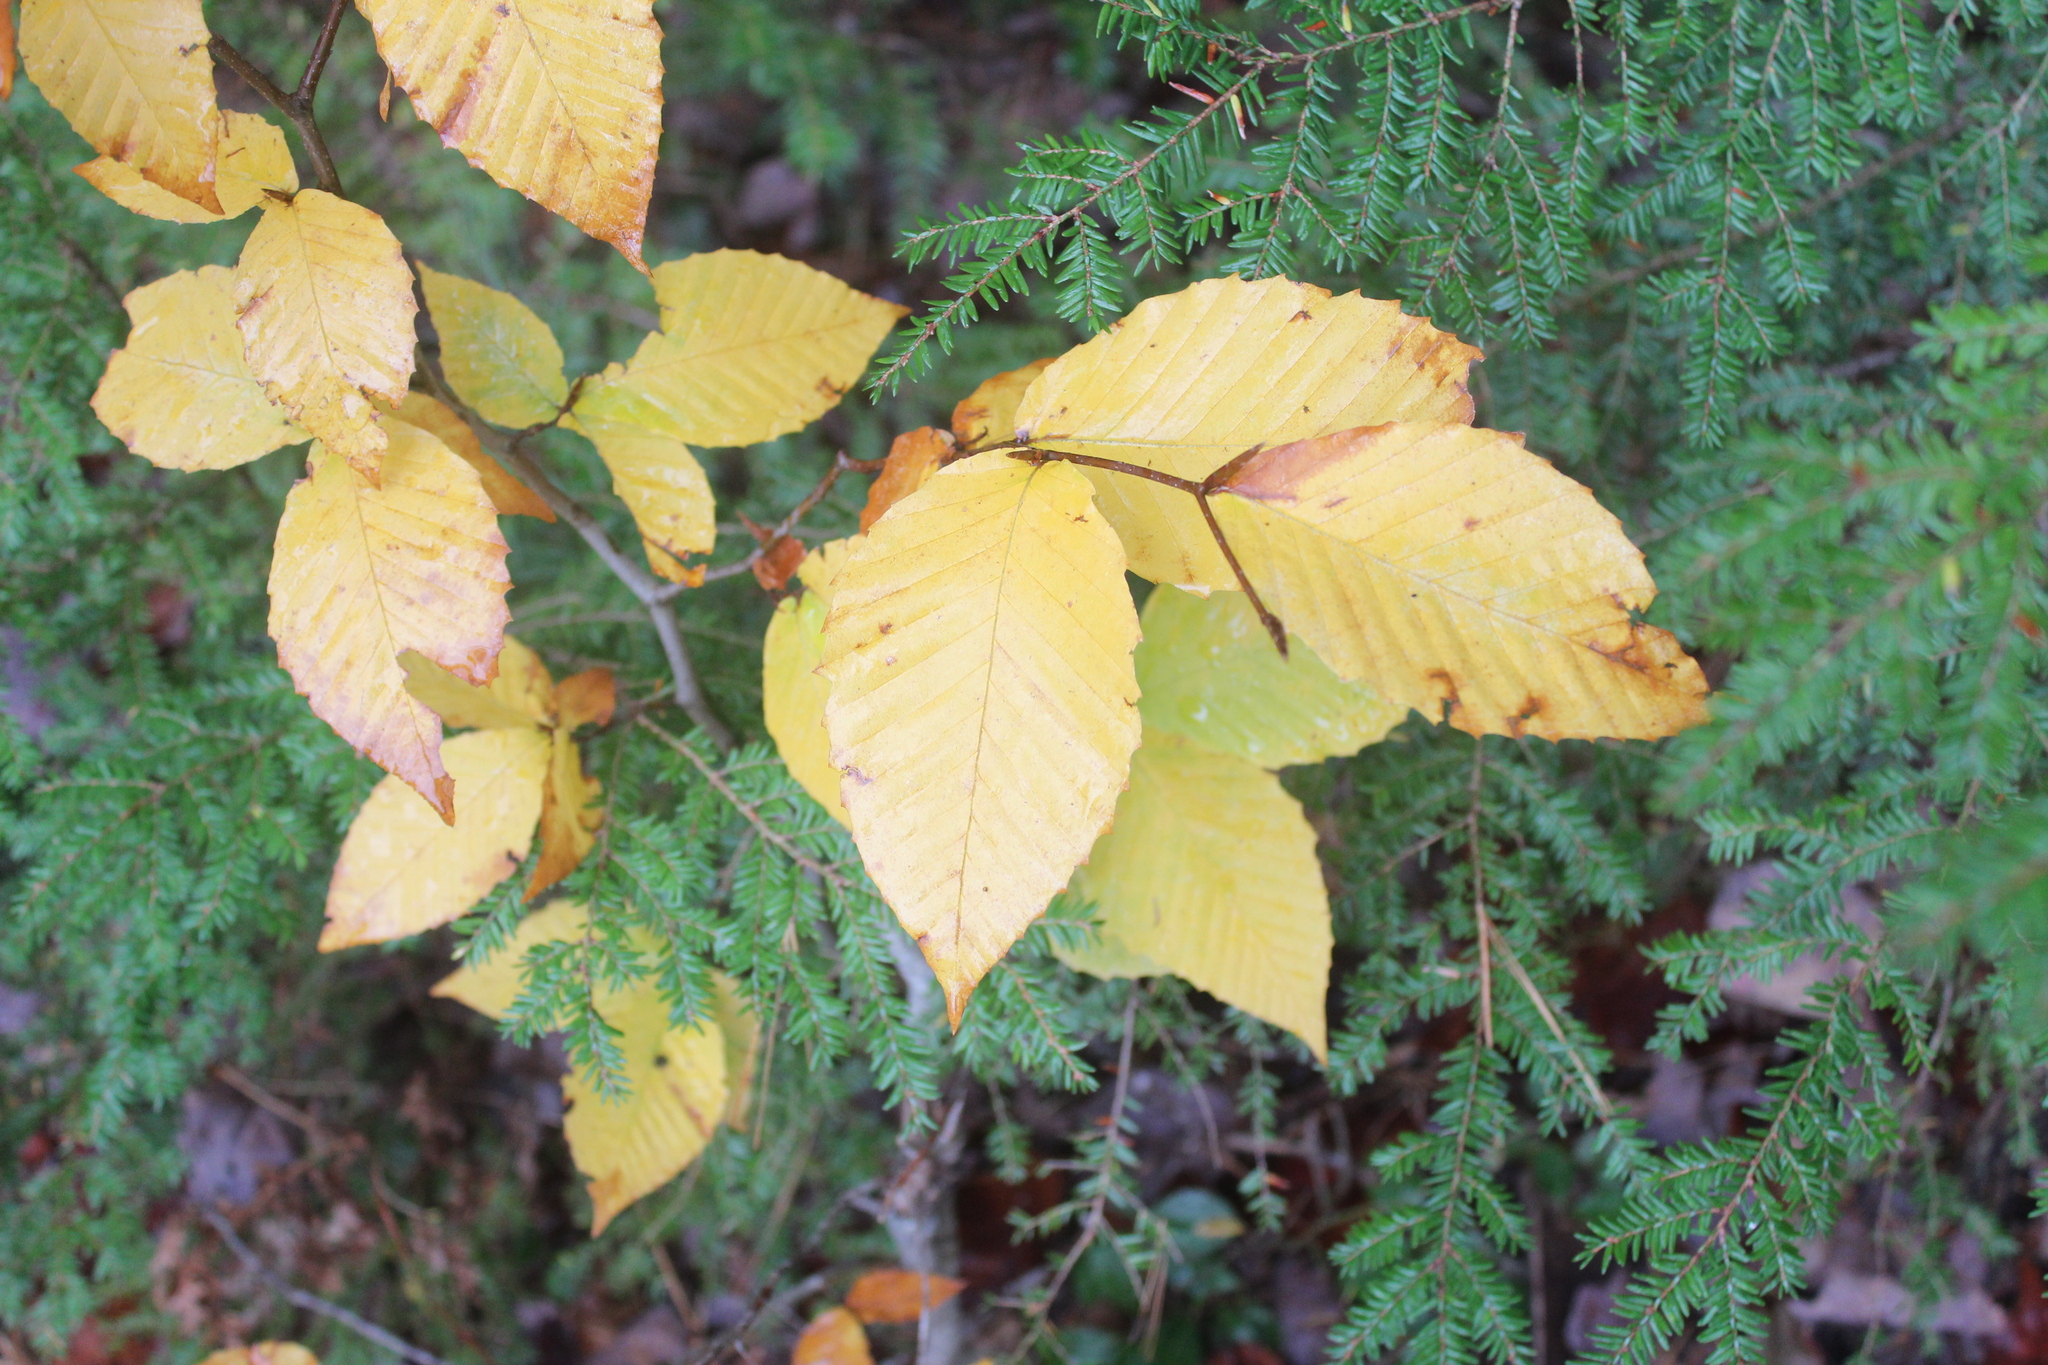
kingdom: Plantae
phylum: Tracheophyta
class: Magnoliopsida
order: Fagales
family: Fagaceae
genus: Fagus
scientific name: Fagus grandifolia
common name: American beech
